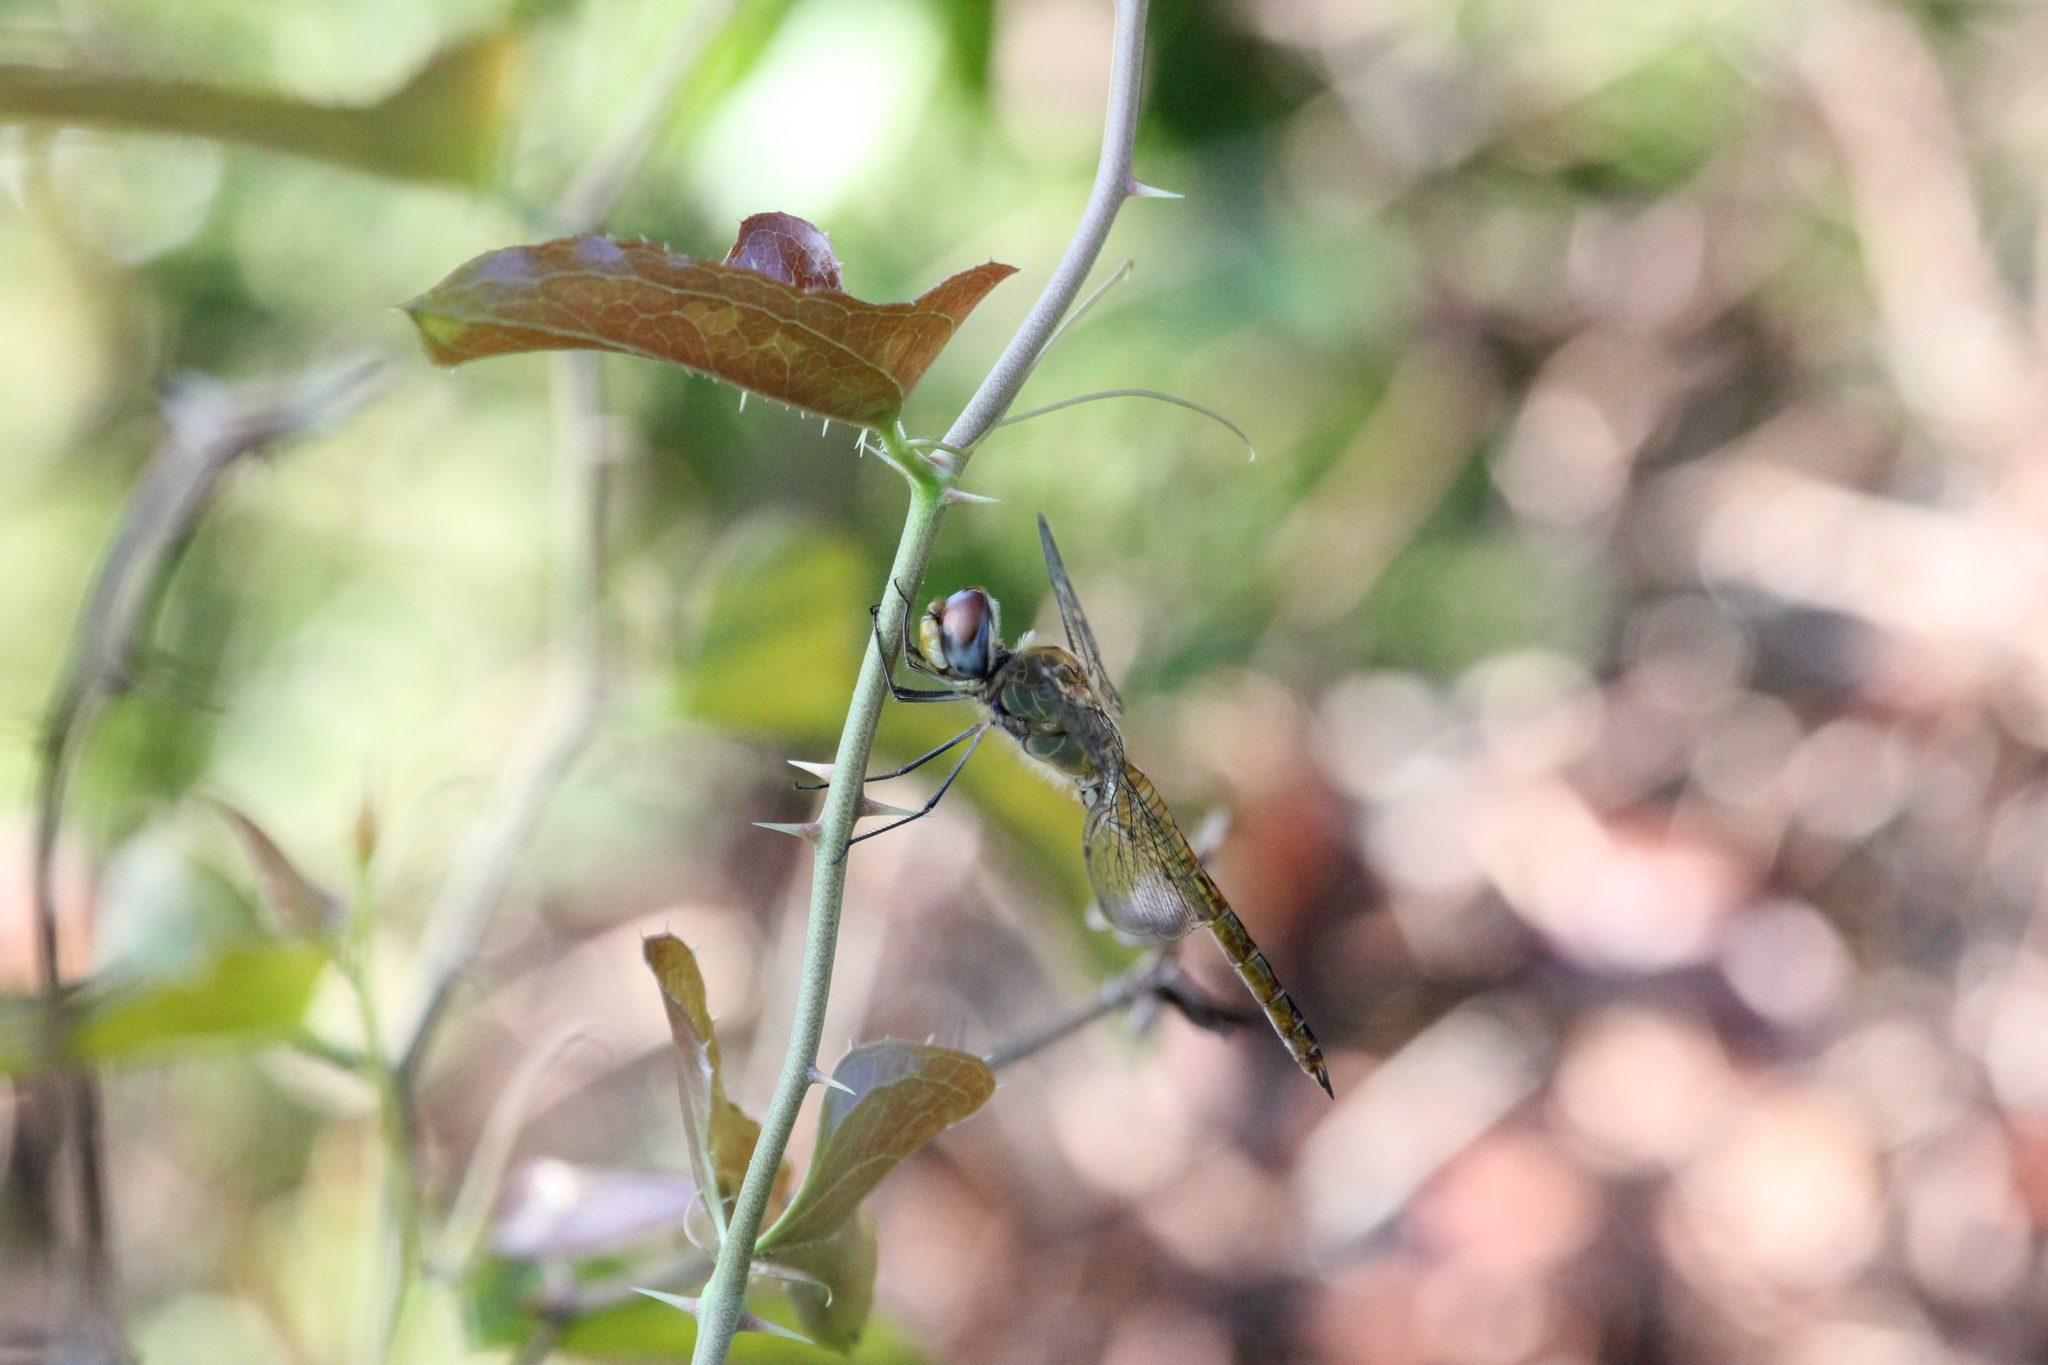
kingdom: Animalia
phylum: Arthropoda
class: Insecta
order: Odonata
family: Libellulidae
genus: Pantala
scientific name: Pantala flavescens
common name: Wandering glider
